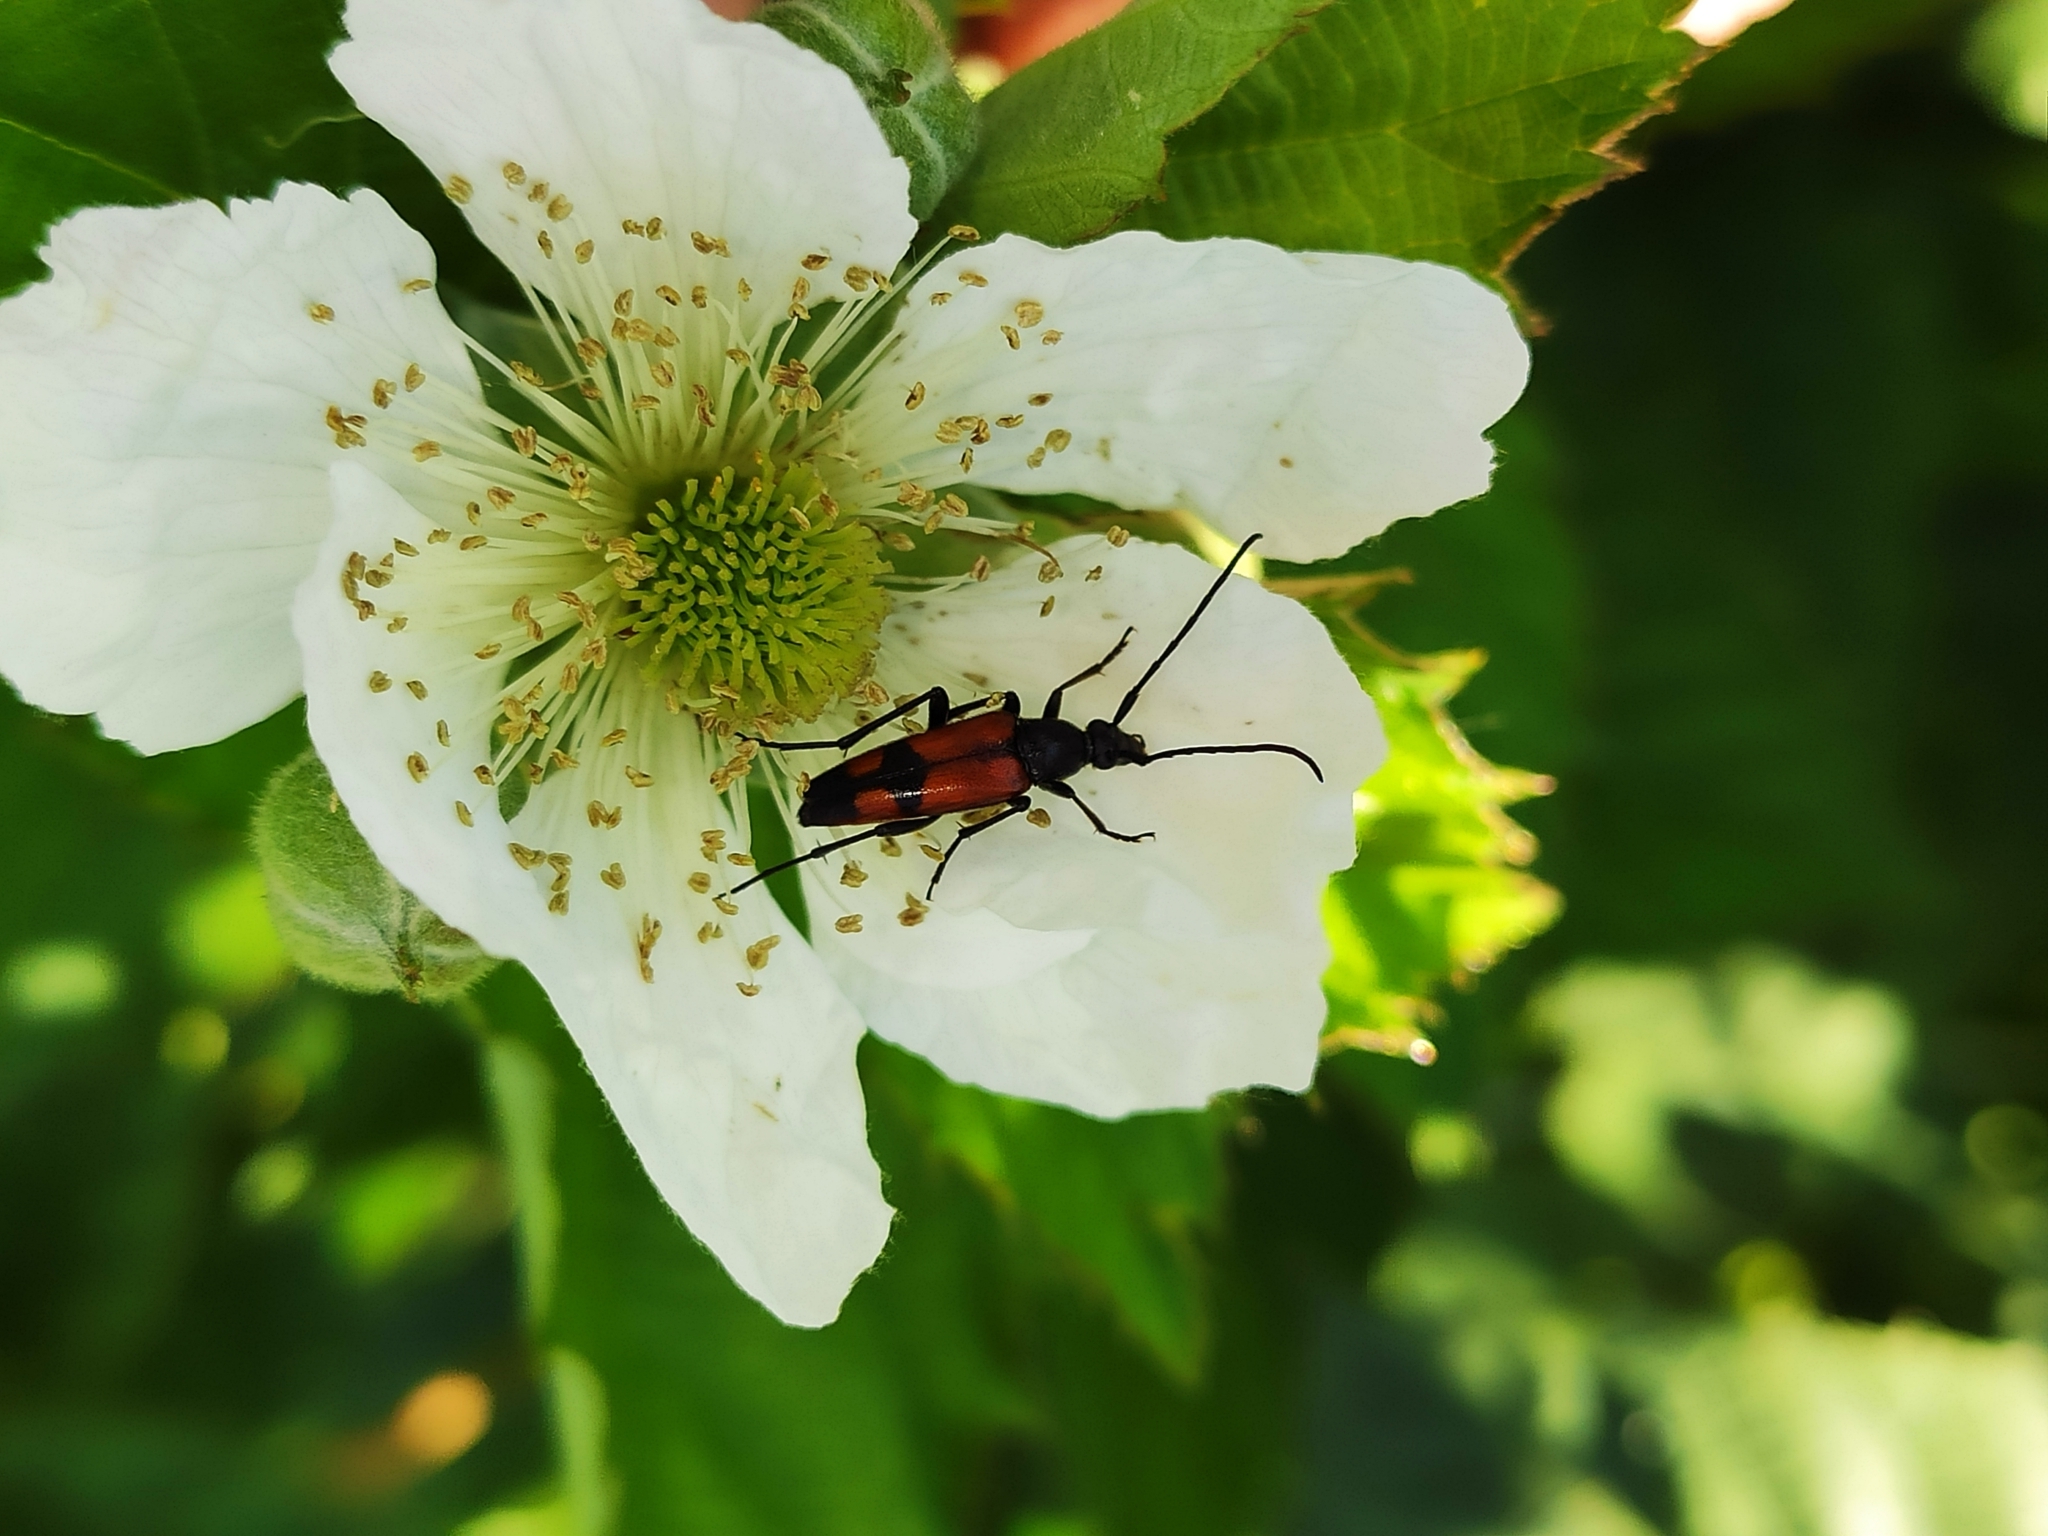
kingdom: Animalia
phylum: Arthropoda
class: Insecta
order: Coleoptera
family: Cerambycidae
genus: Stenurella
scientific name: Stenurella bifasciata
